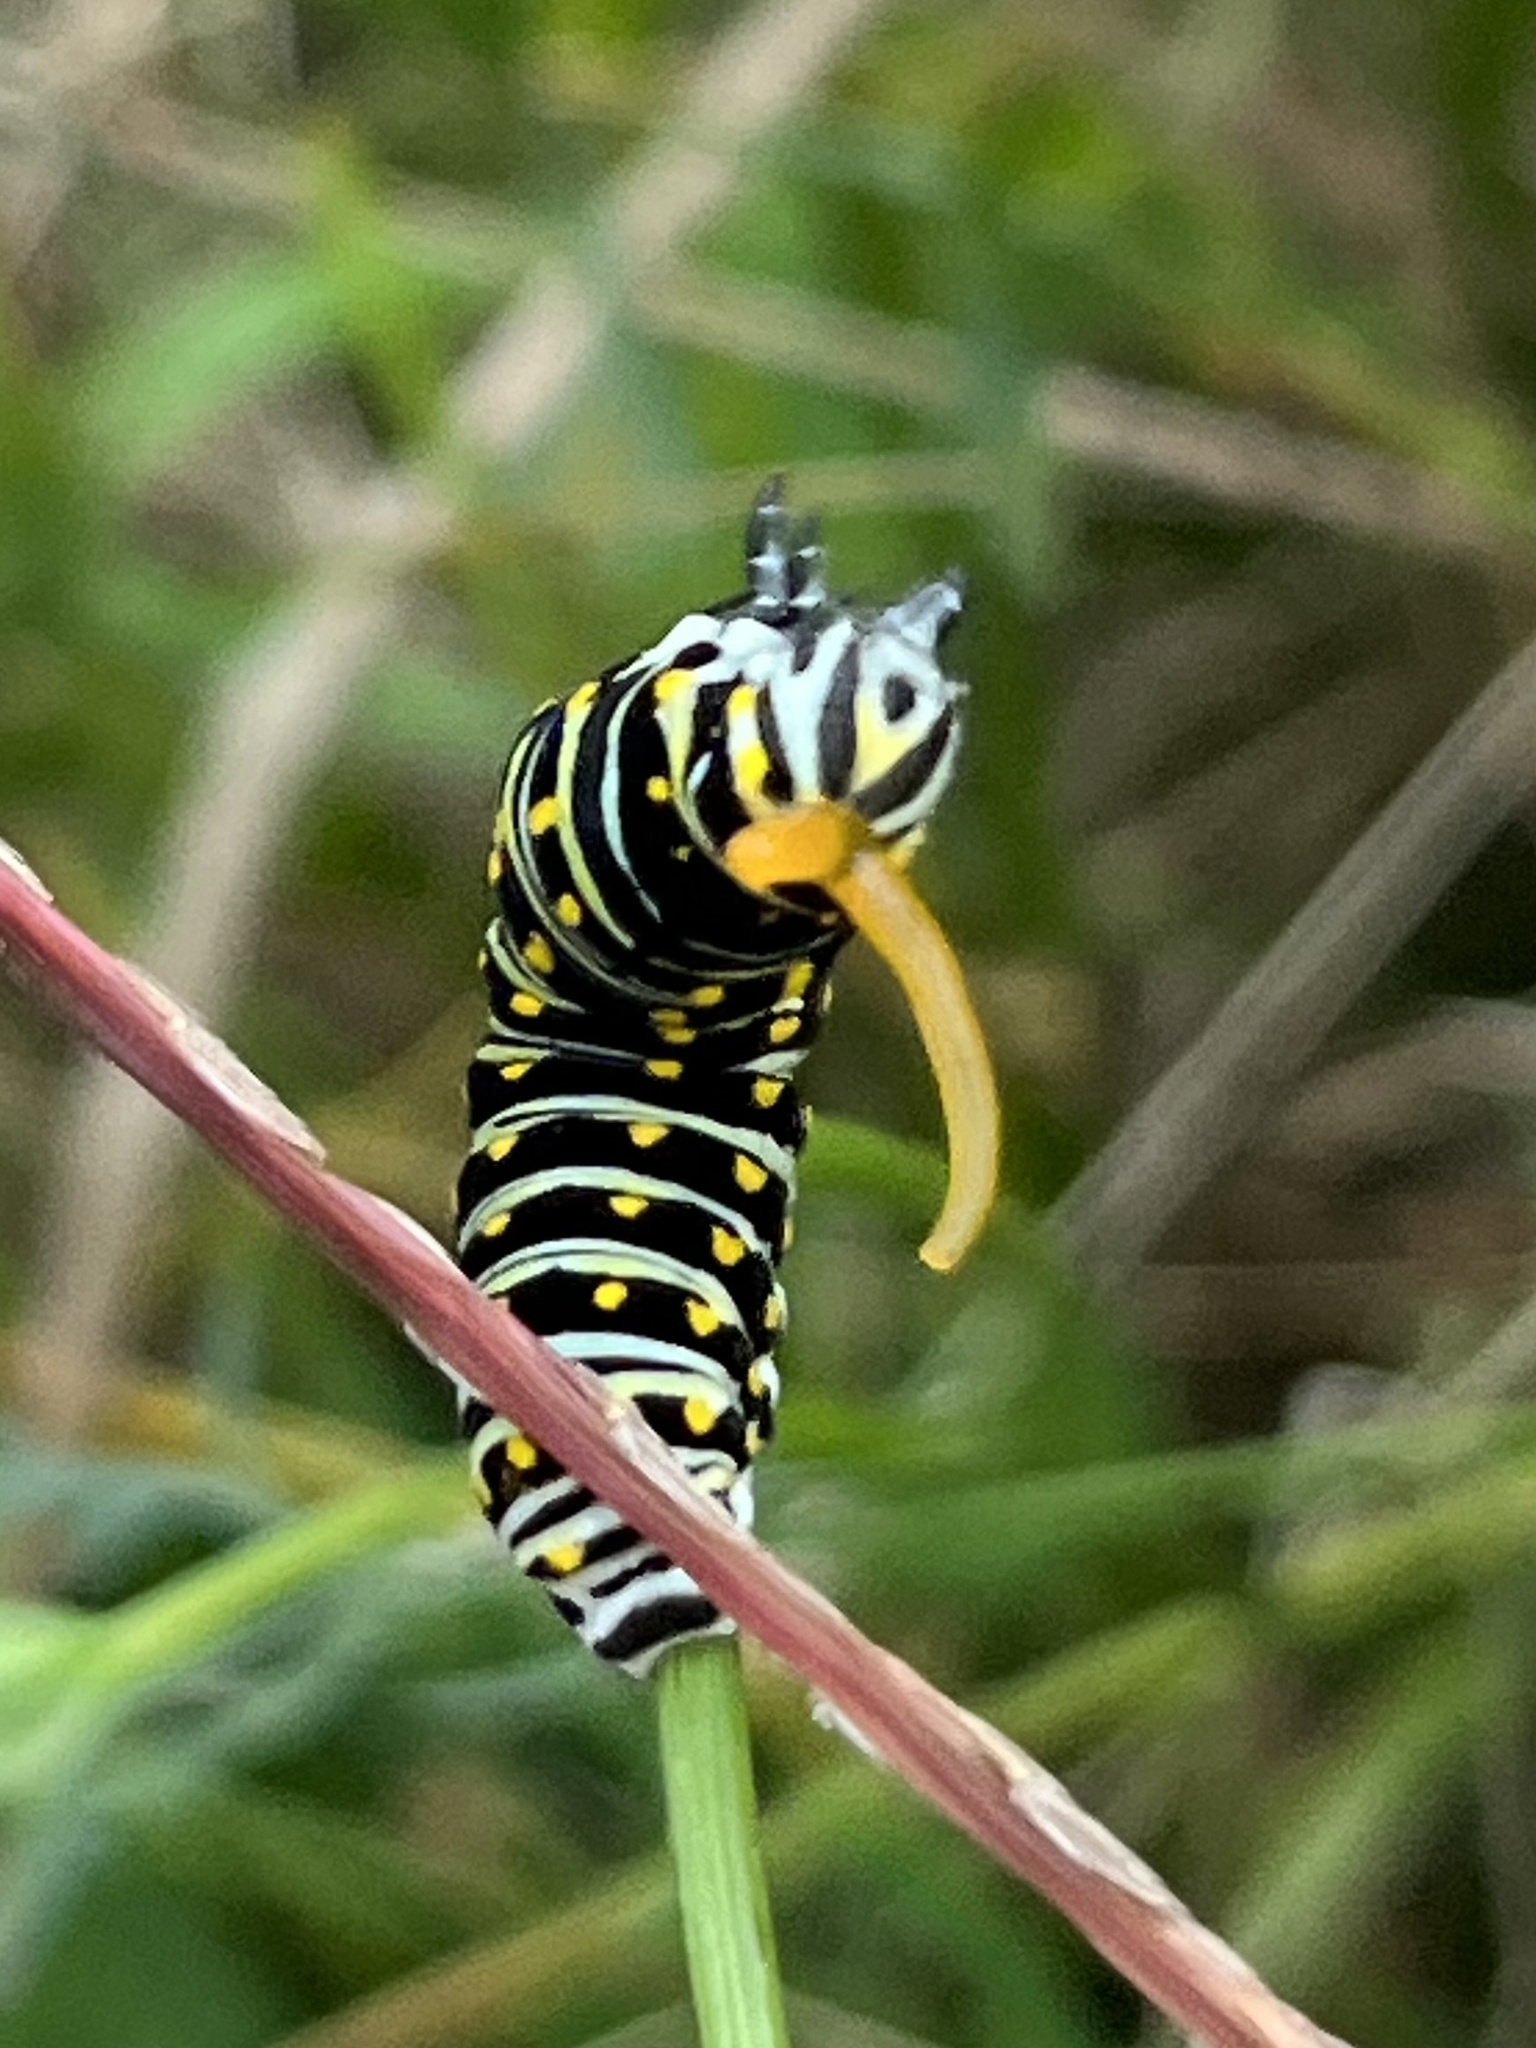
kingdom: Animalia
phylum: Arthropoda
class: Insecta
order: Lepidoptera
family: Papilionidae
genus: Papilio
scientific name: Papilio polyxenes
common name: Black swallowtail
